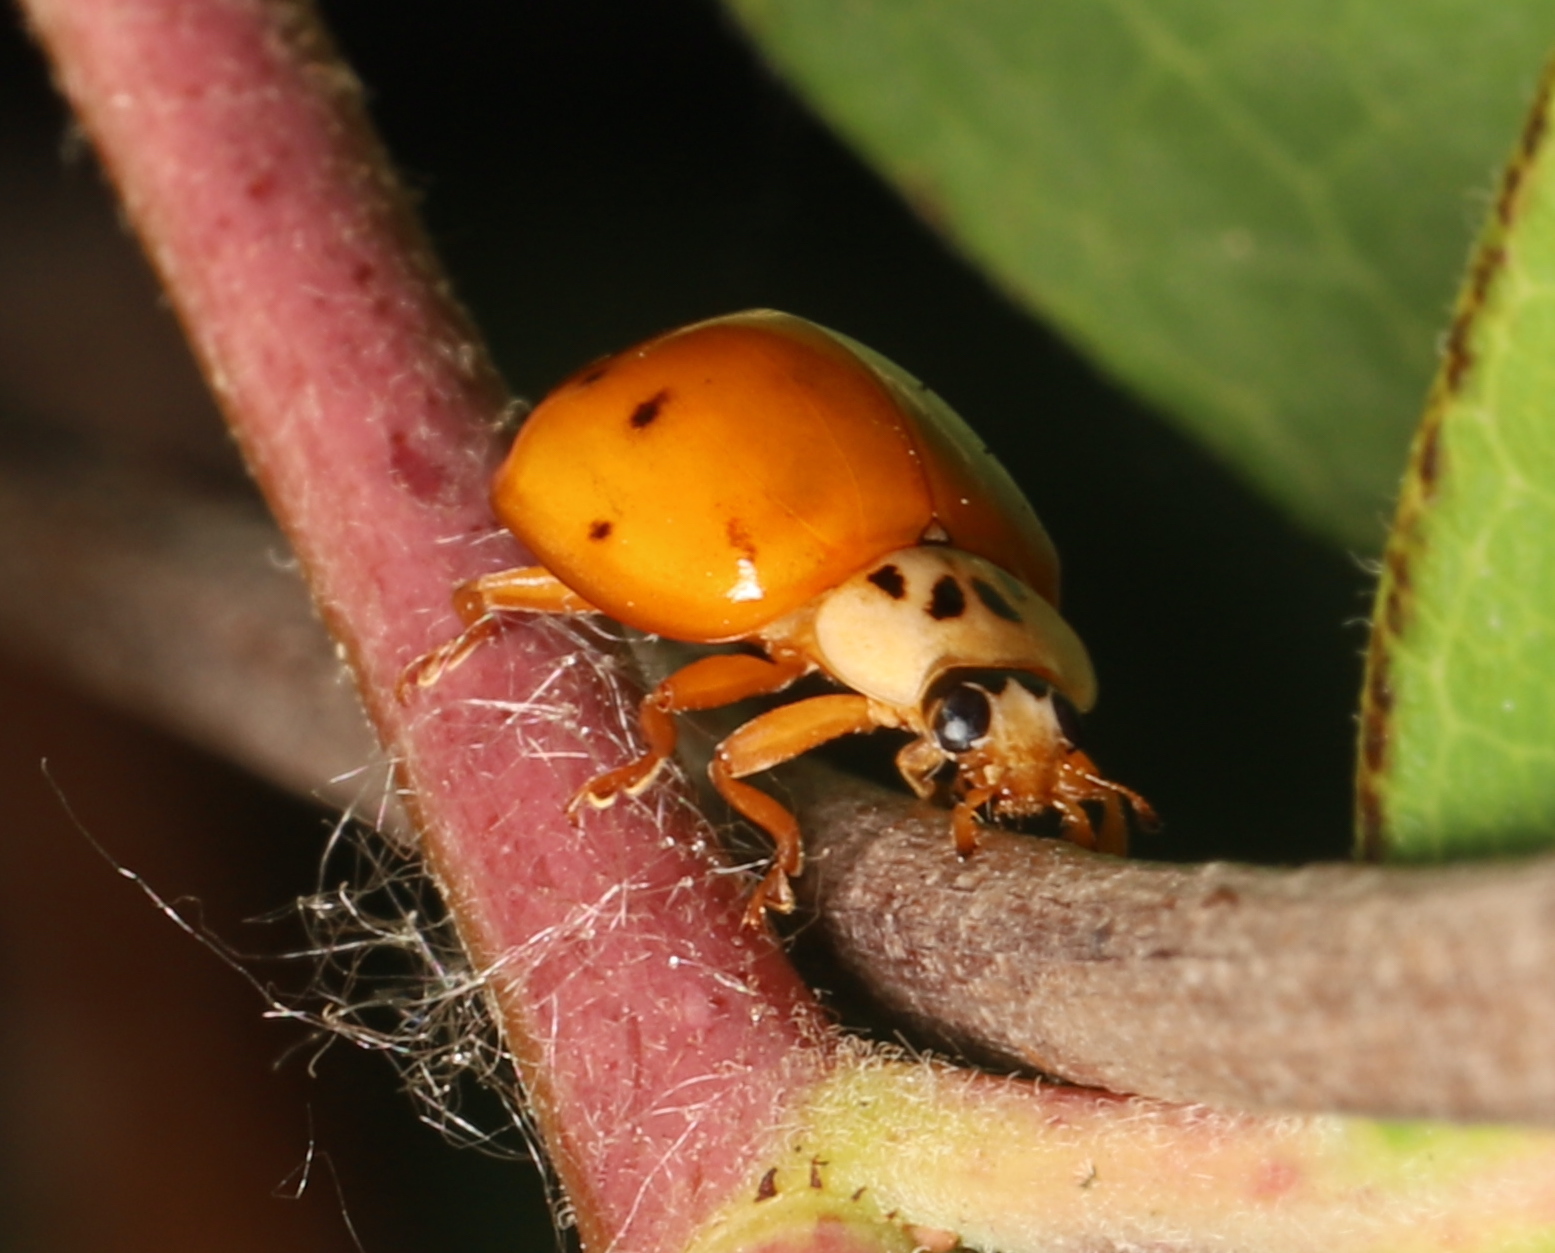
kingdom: Animalia
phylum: Arthropoda
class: Insecta
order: Coleoptera
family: Coccinellidae
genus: Harmonia
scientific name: Harmonia axyridis
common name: Harlequin ladybird
